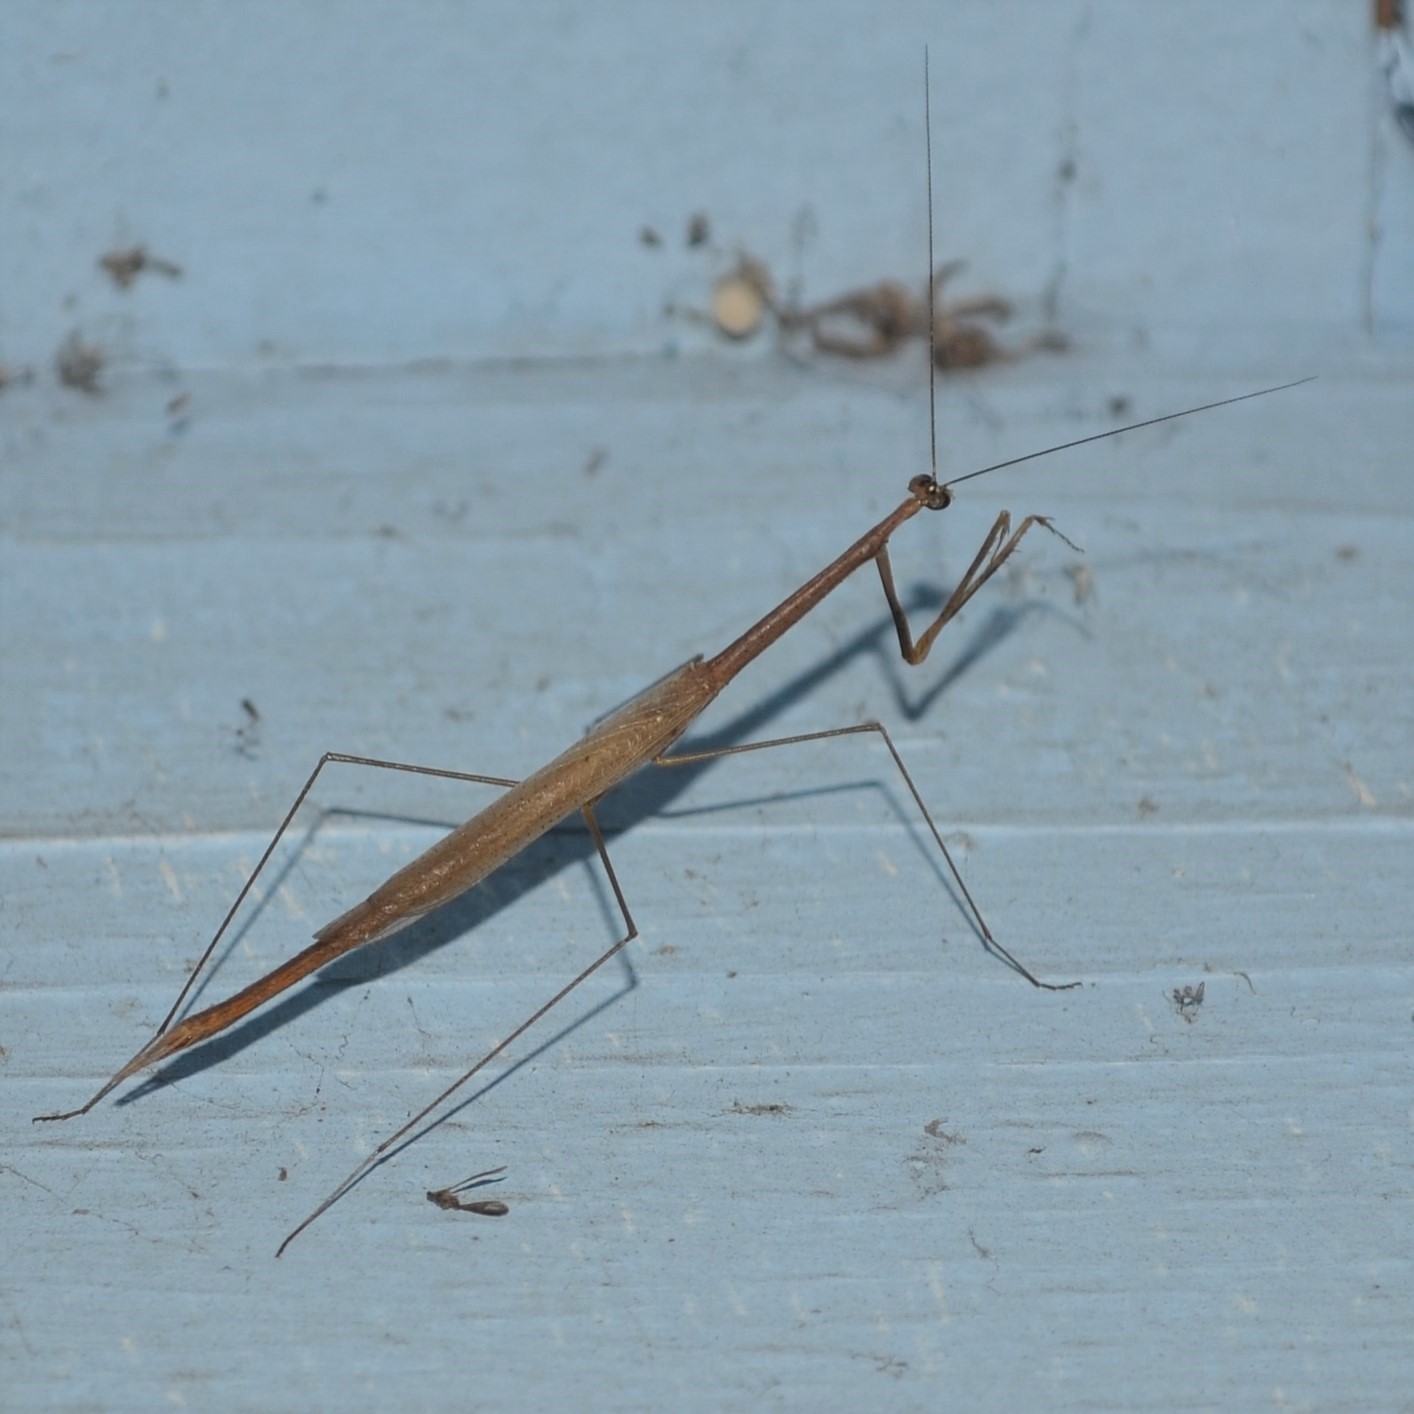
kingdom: Animalia
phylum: Arthropoda
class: Insecta
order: Mantodea
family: Thespidae
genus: Thesprotia
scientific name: Thesprotia graminis
